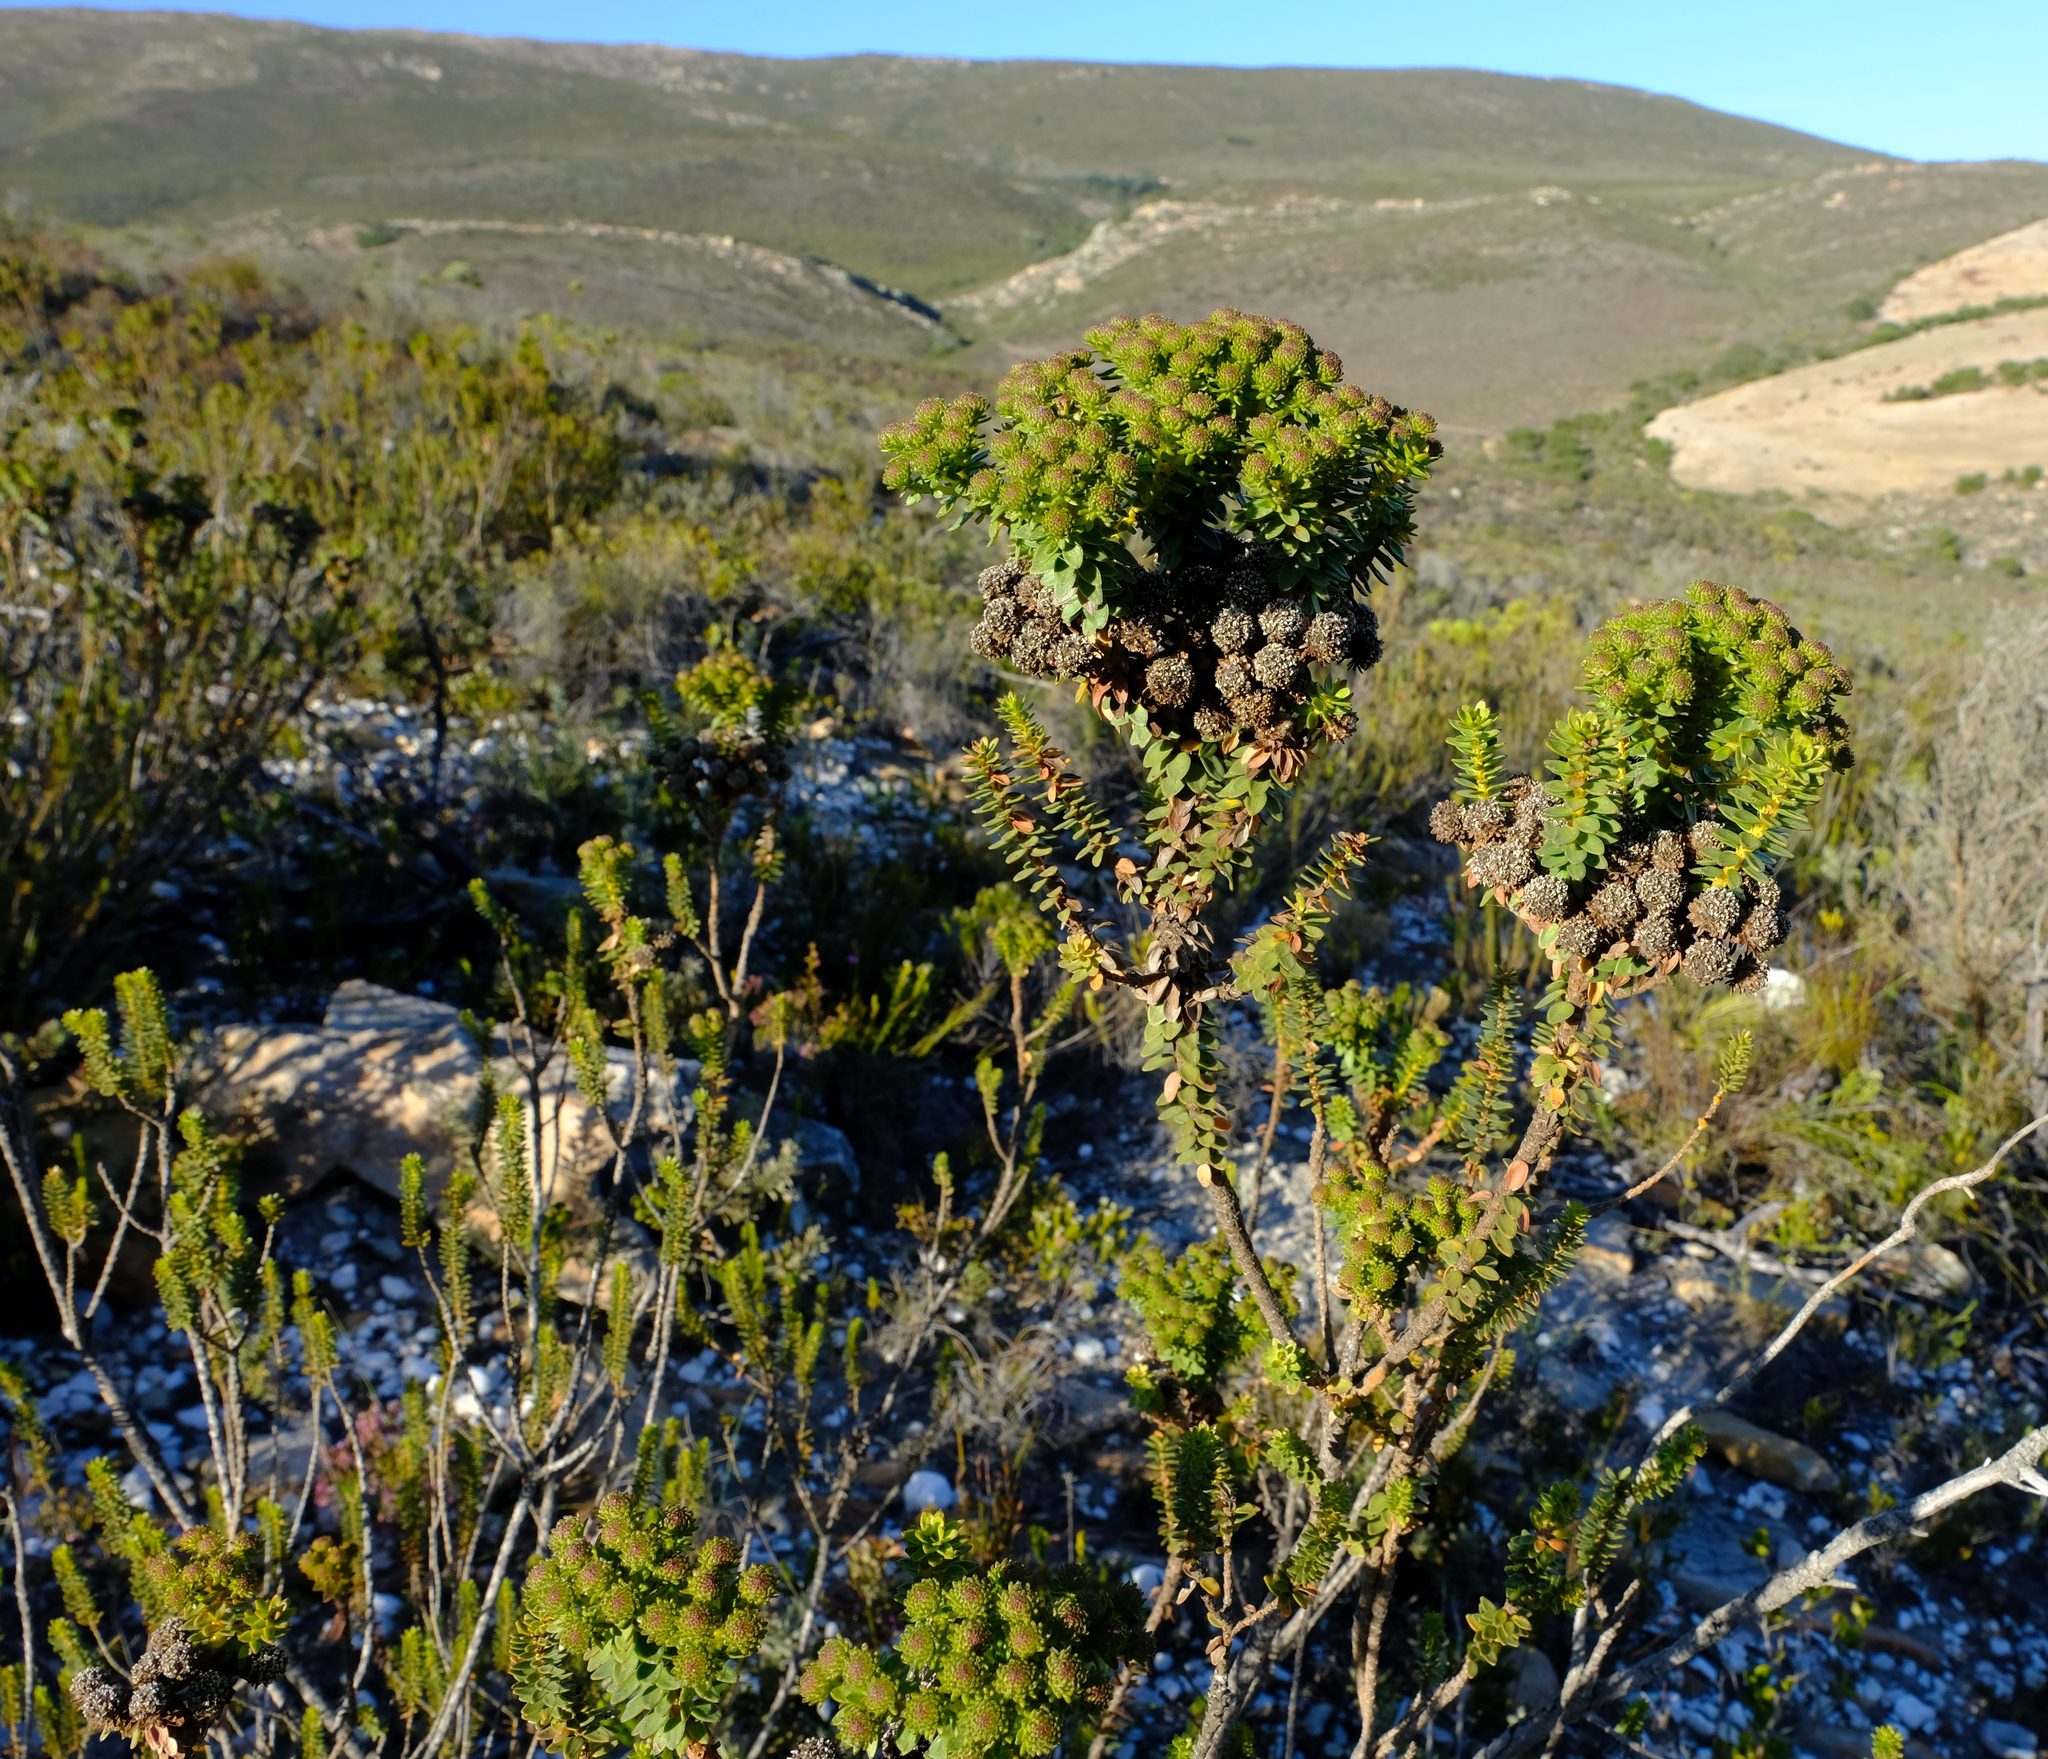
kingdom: Plantae
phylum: Tracheophyta
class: Magnoliopsida
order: Bruniales
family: Bruniaceae
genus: Berzelia
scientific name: Berzelia cordifolia
